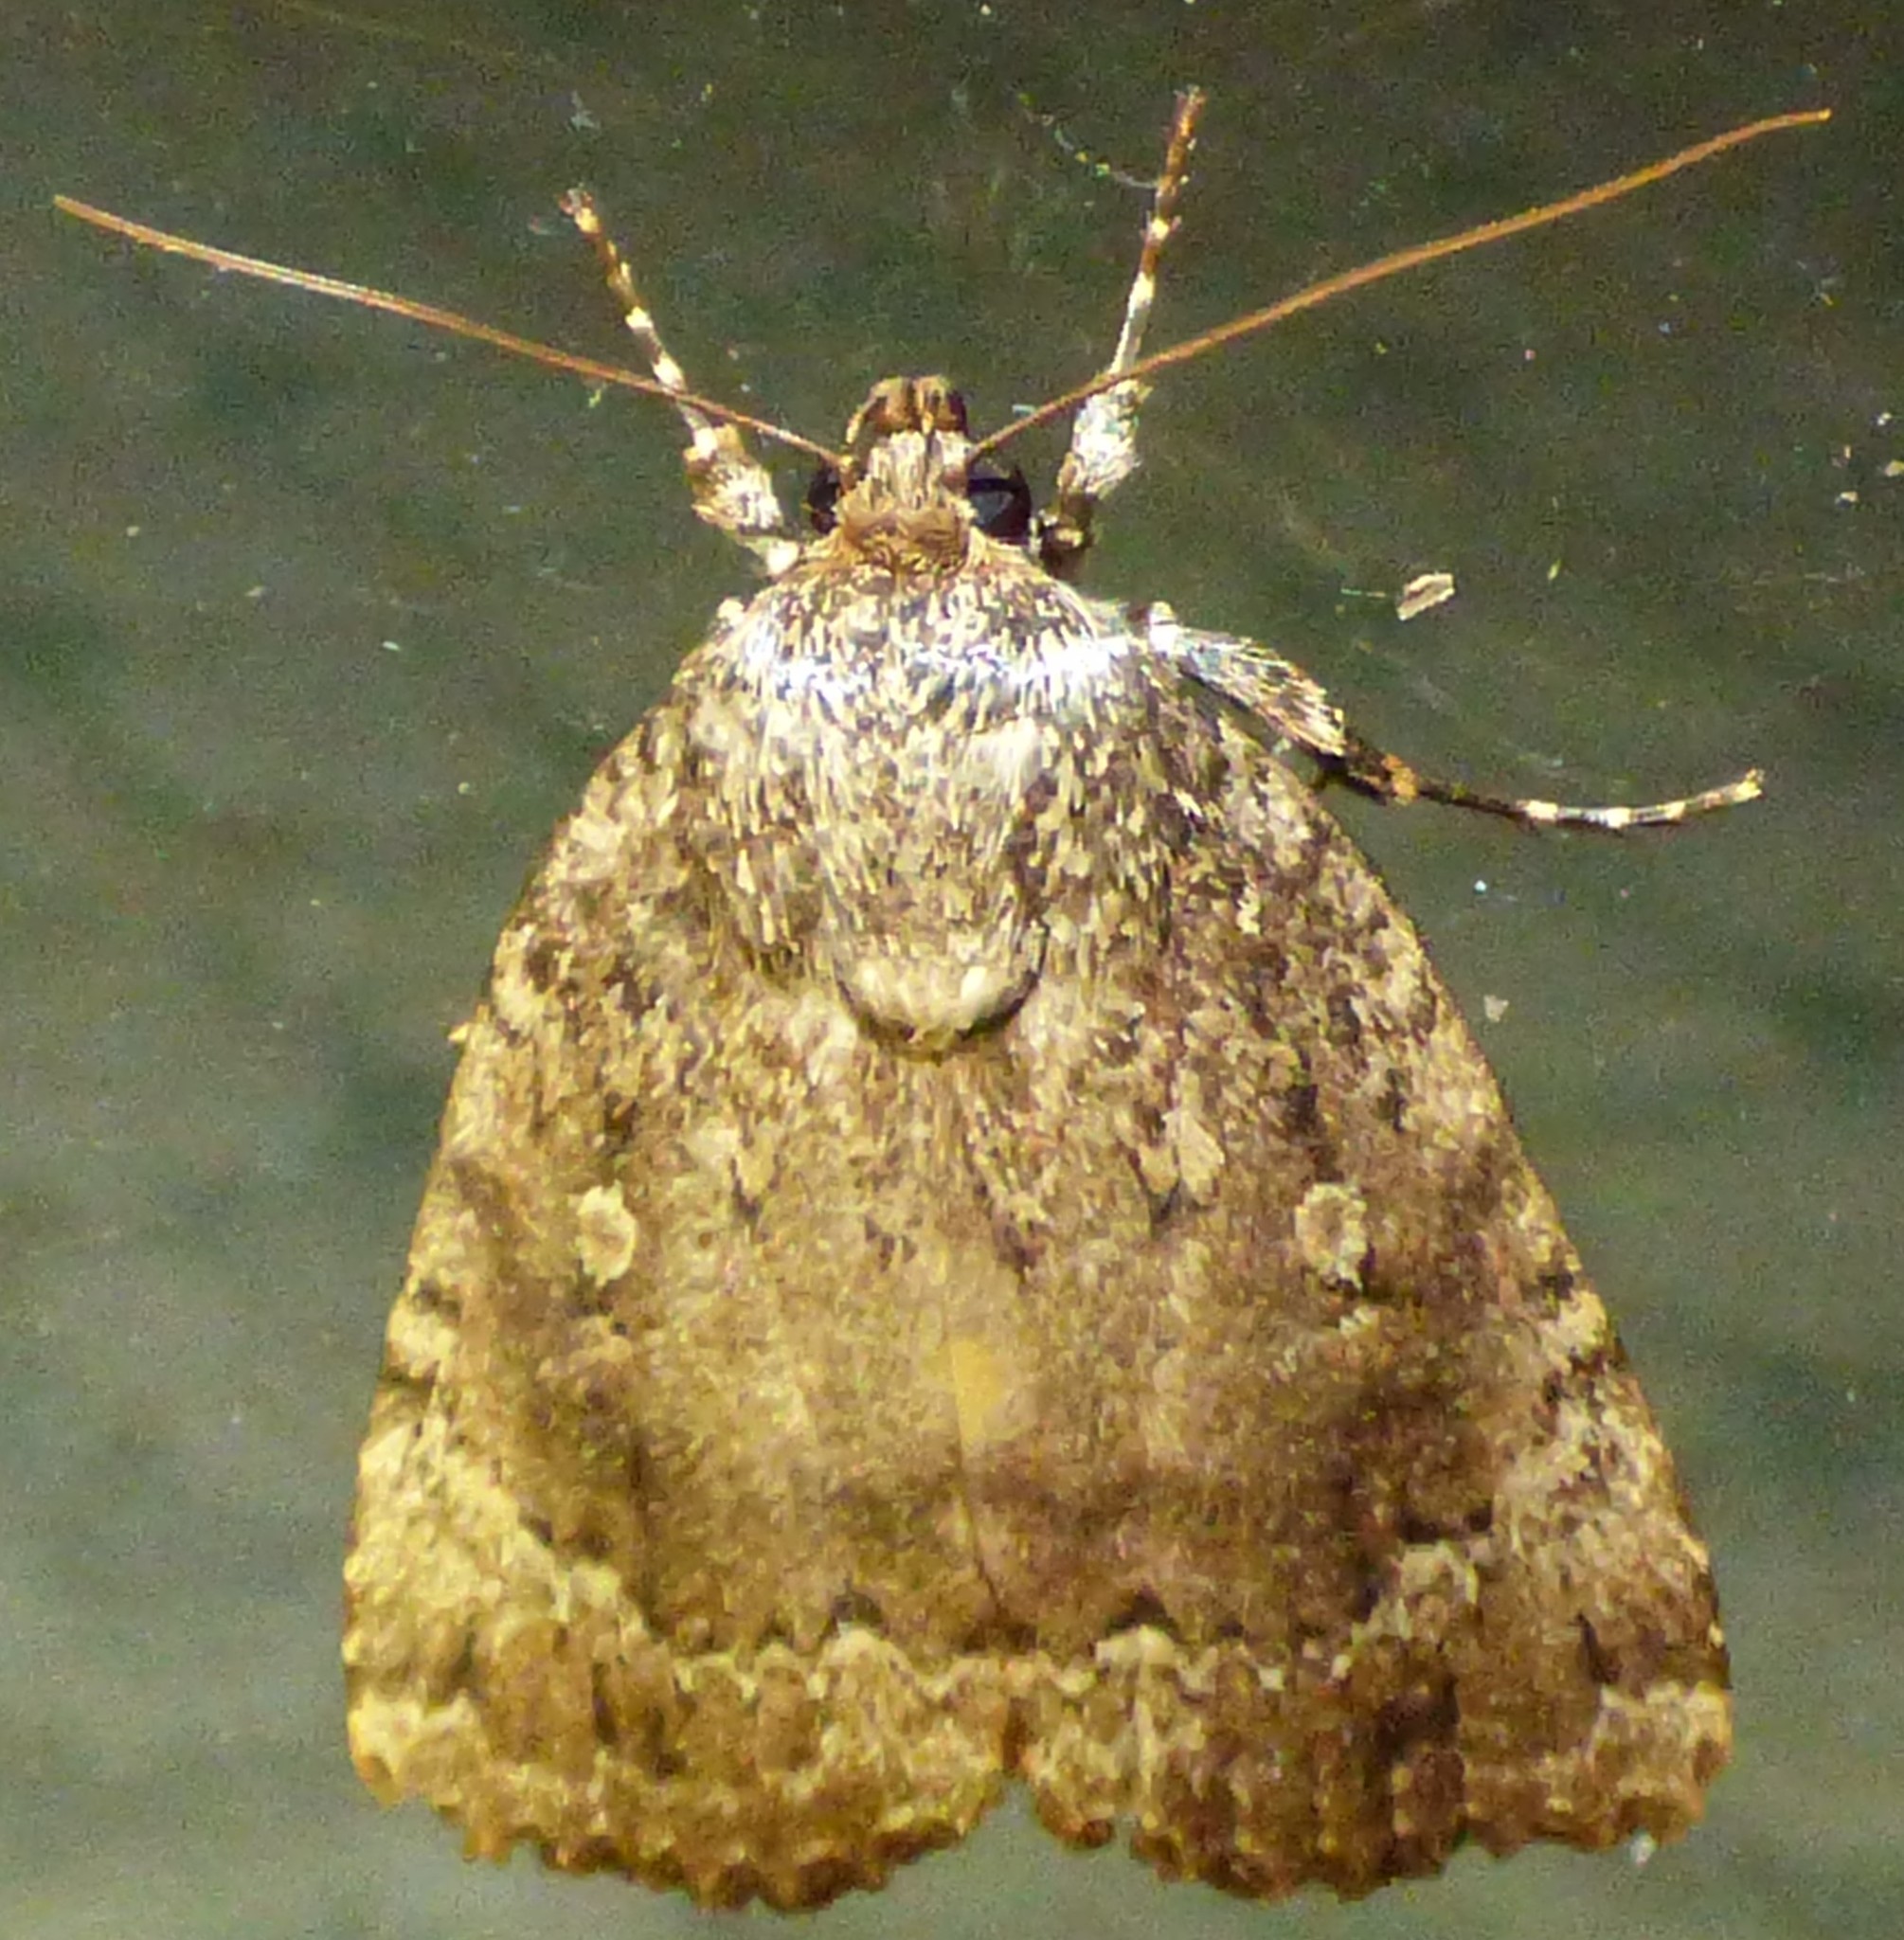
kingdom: Animalia
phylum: Arthropoda
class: Insecta
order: Lepidoptera
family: Noctuidae
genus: Amphipyra
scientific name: Amphipyra pyramidoides
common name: American copper underwing
